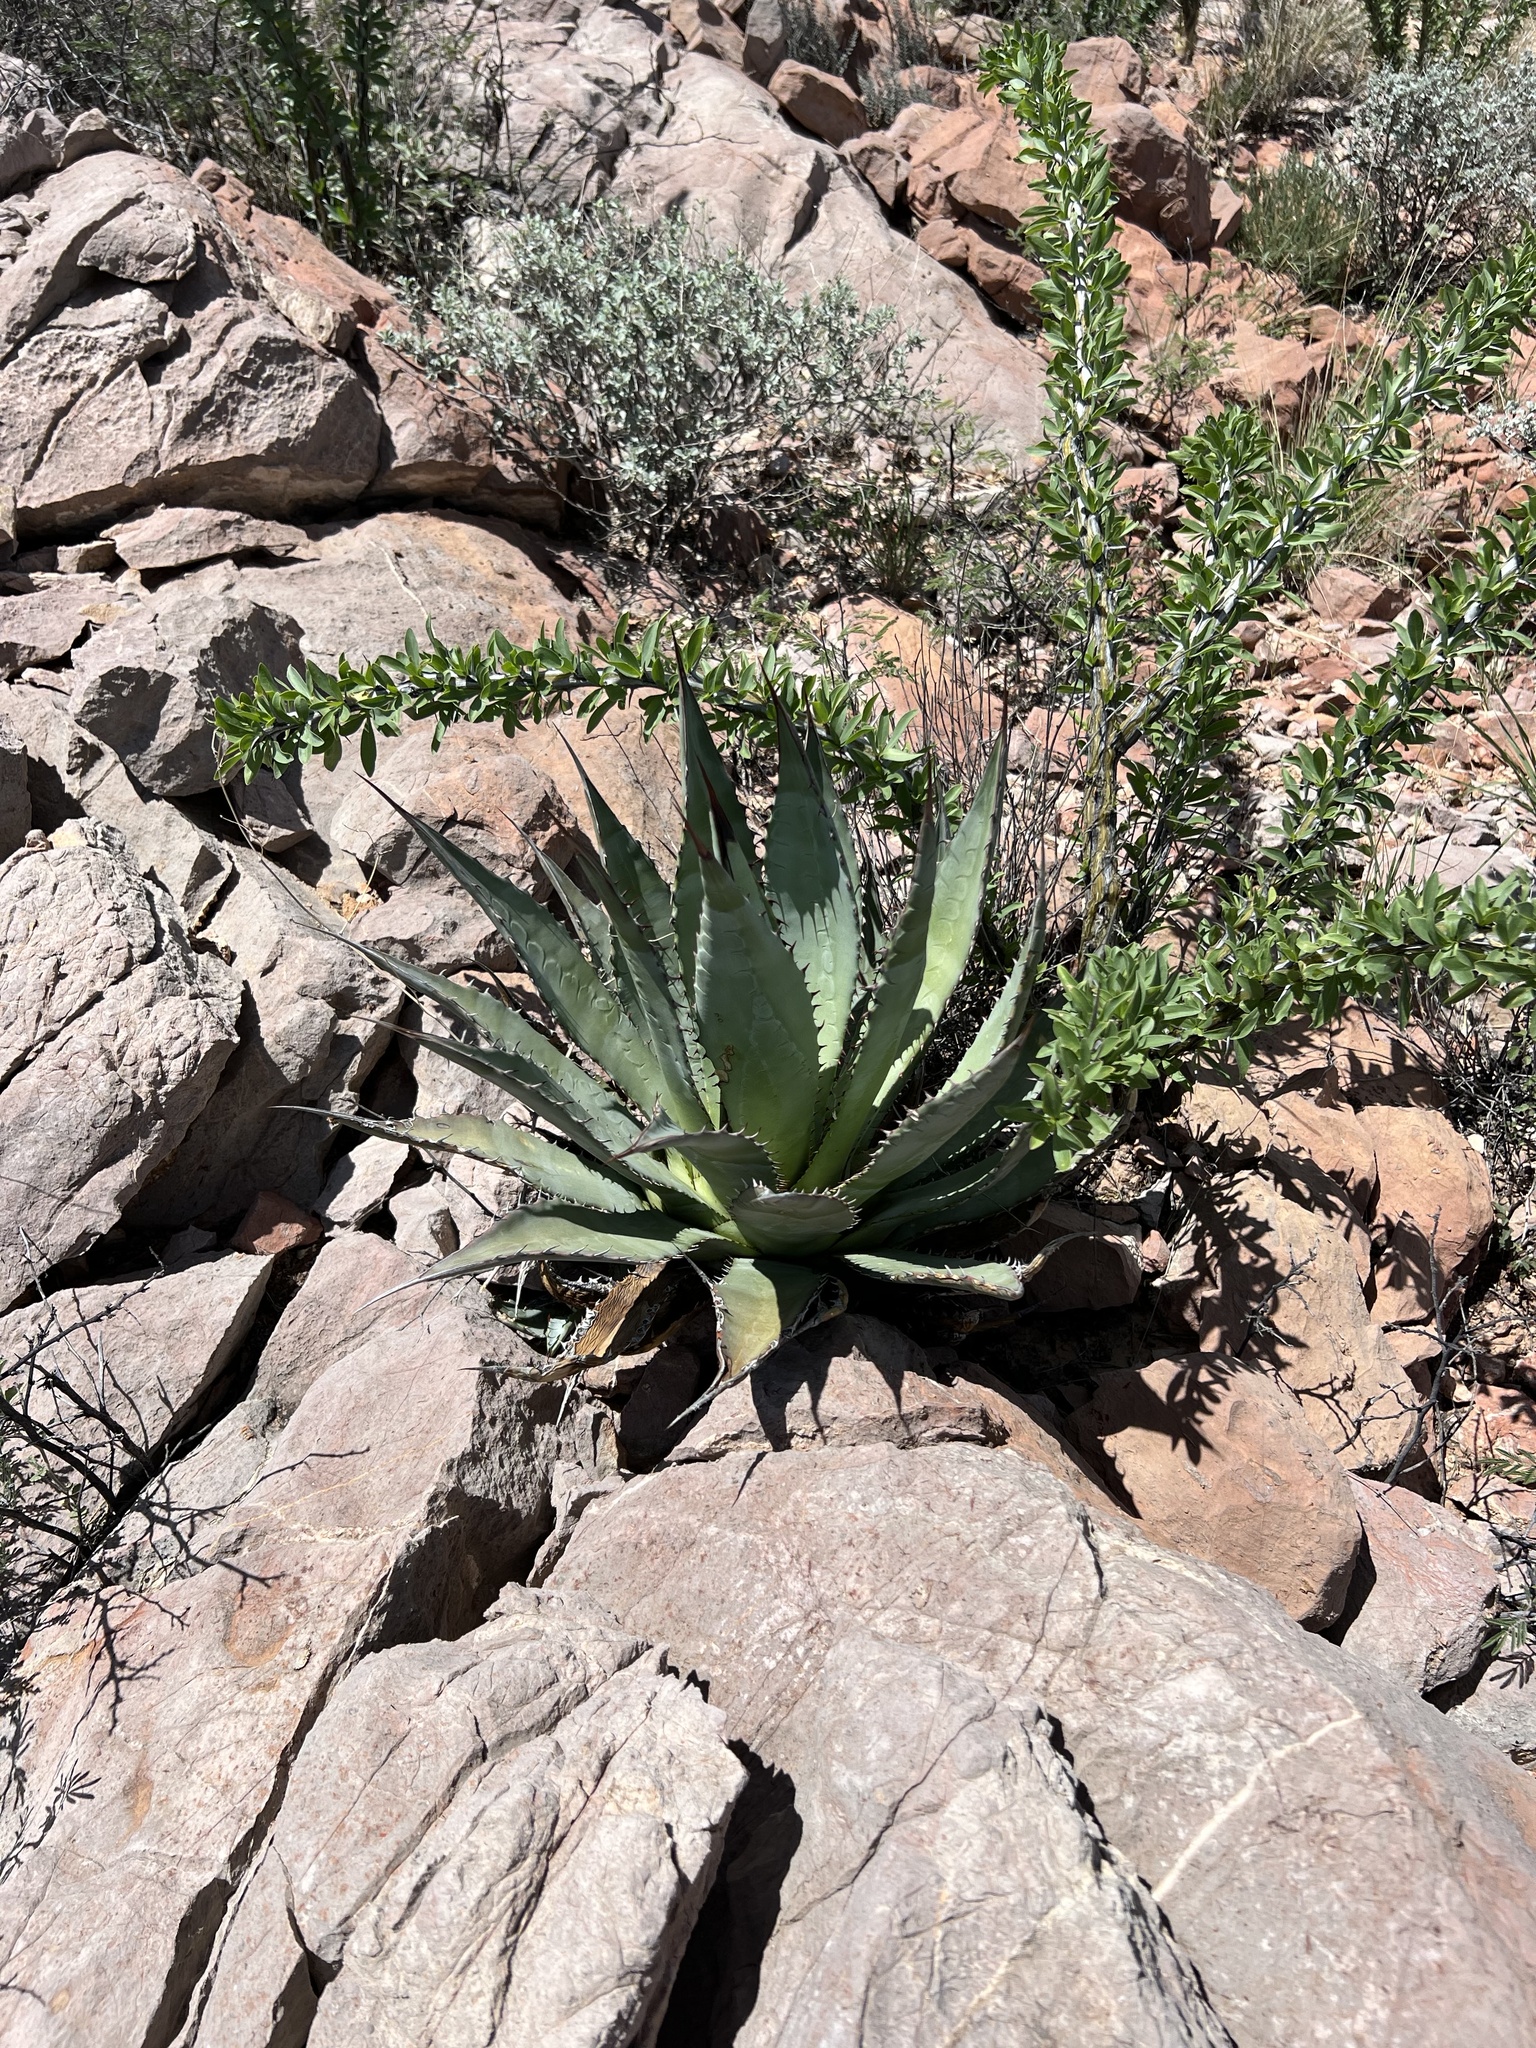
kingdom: Plantae
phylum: Tracheophyta
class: Liliopsida
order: Asparagales
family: Asparagaceae
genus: Agave
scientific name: Agave palmeri
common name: Palmer agave
